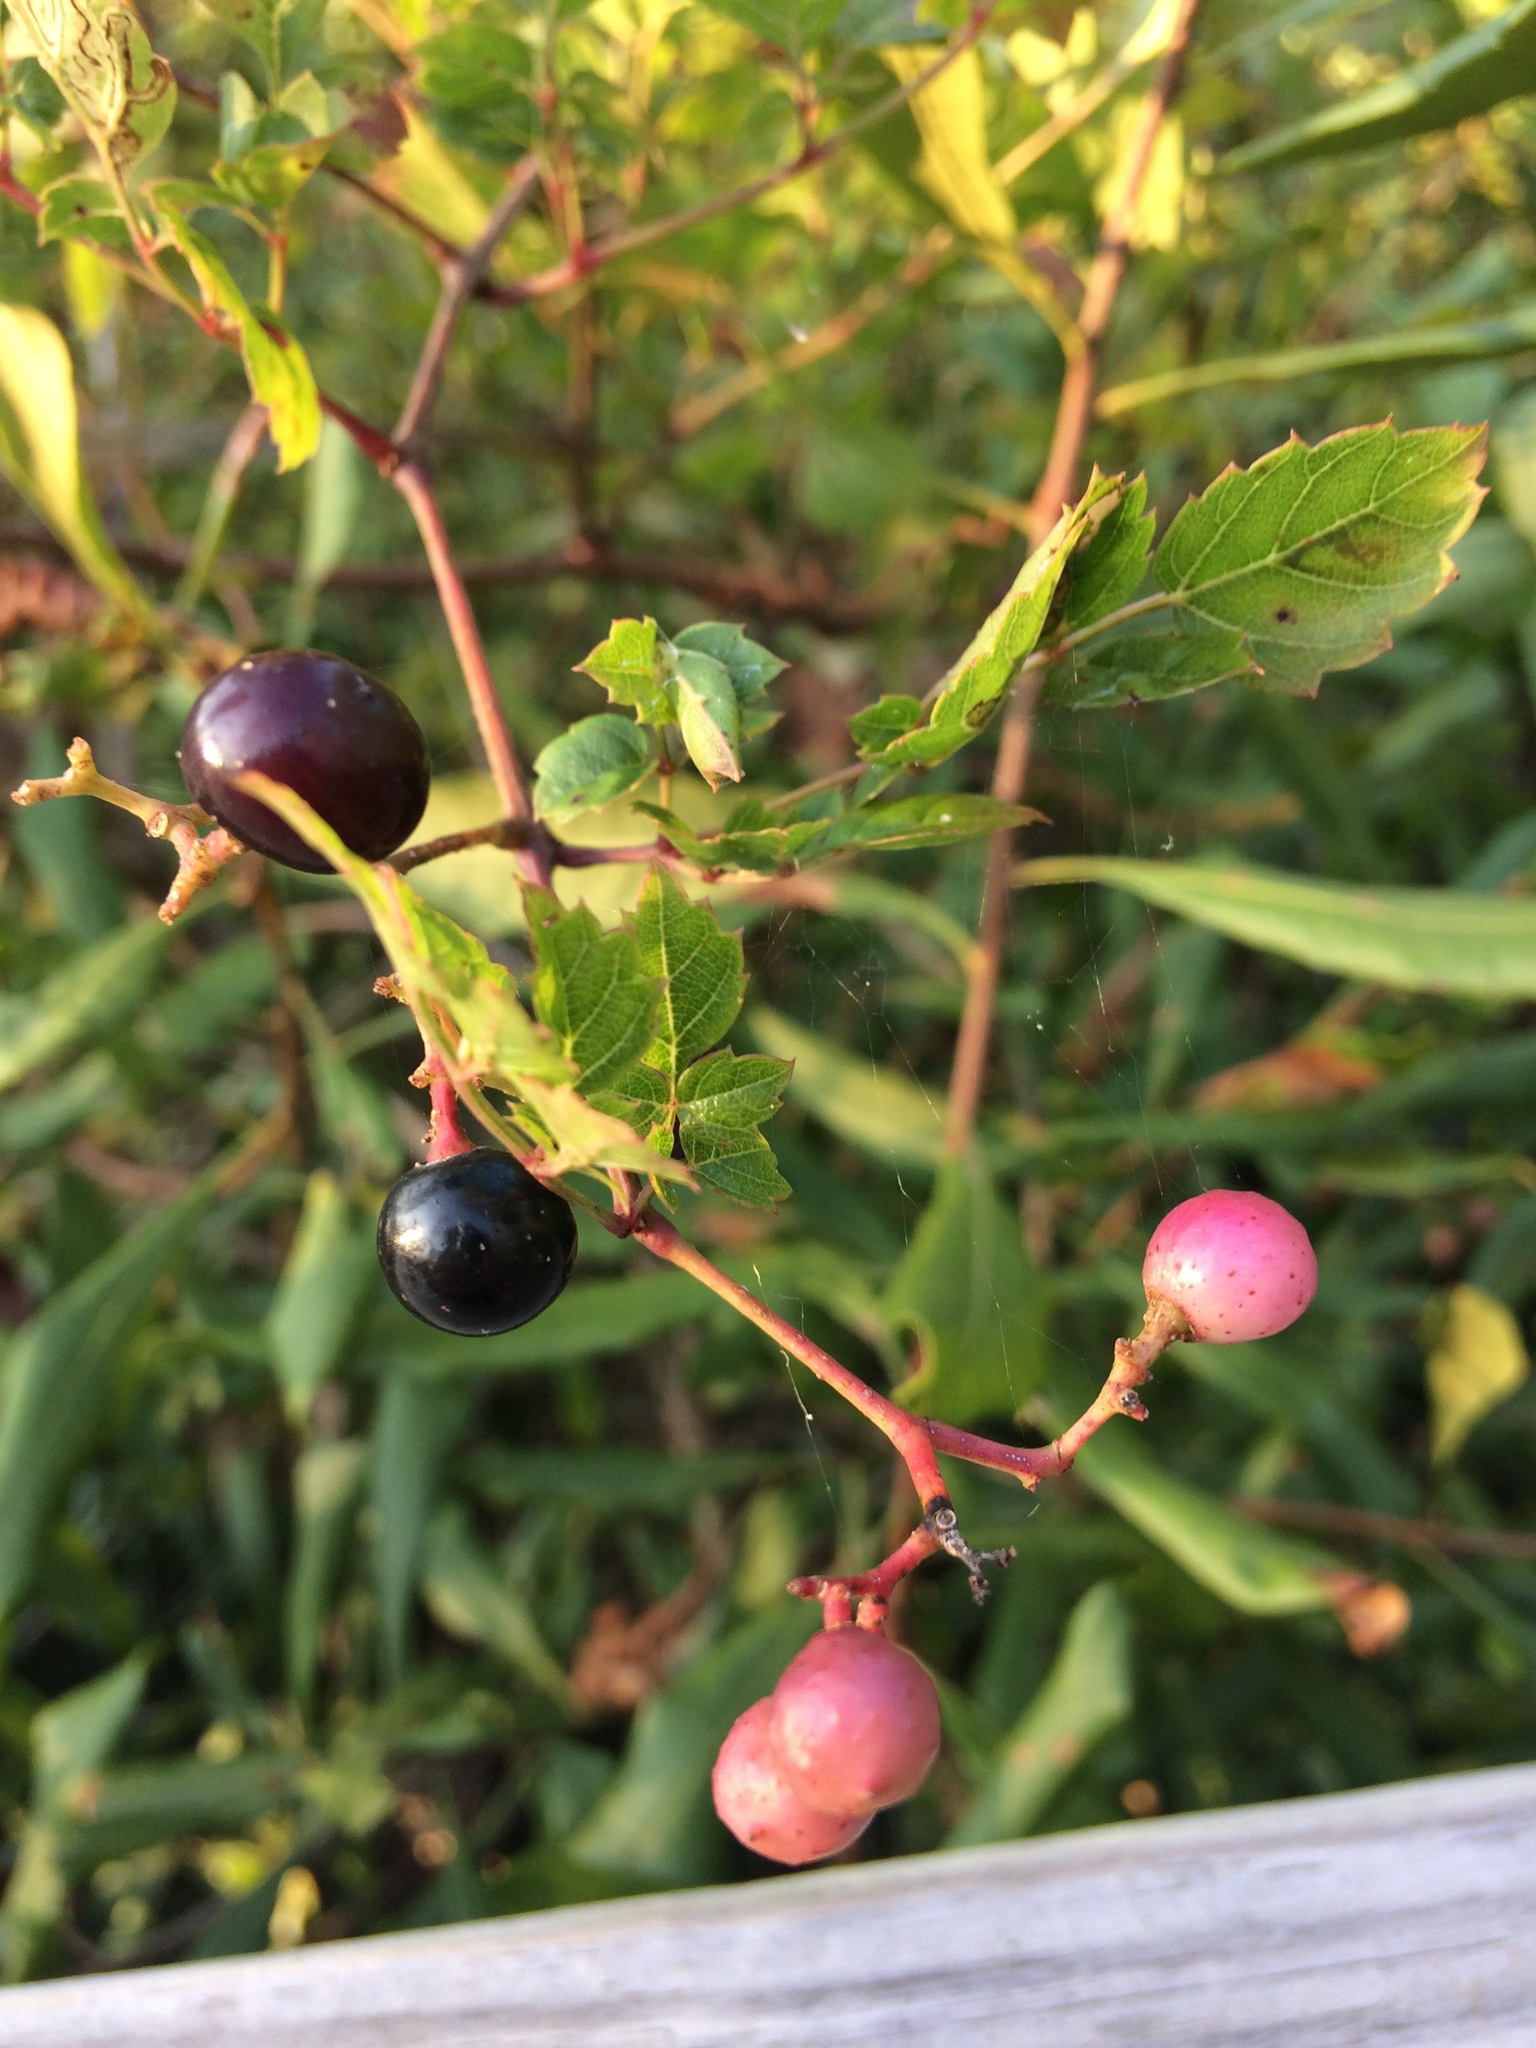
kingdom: Plantae
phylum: Tracheophyta
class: Magnoliopsida
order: Vitales
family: Vitaceae
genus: Nekemias
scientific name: Nekemias arborea
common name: Peppervine
